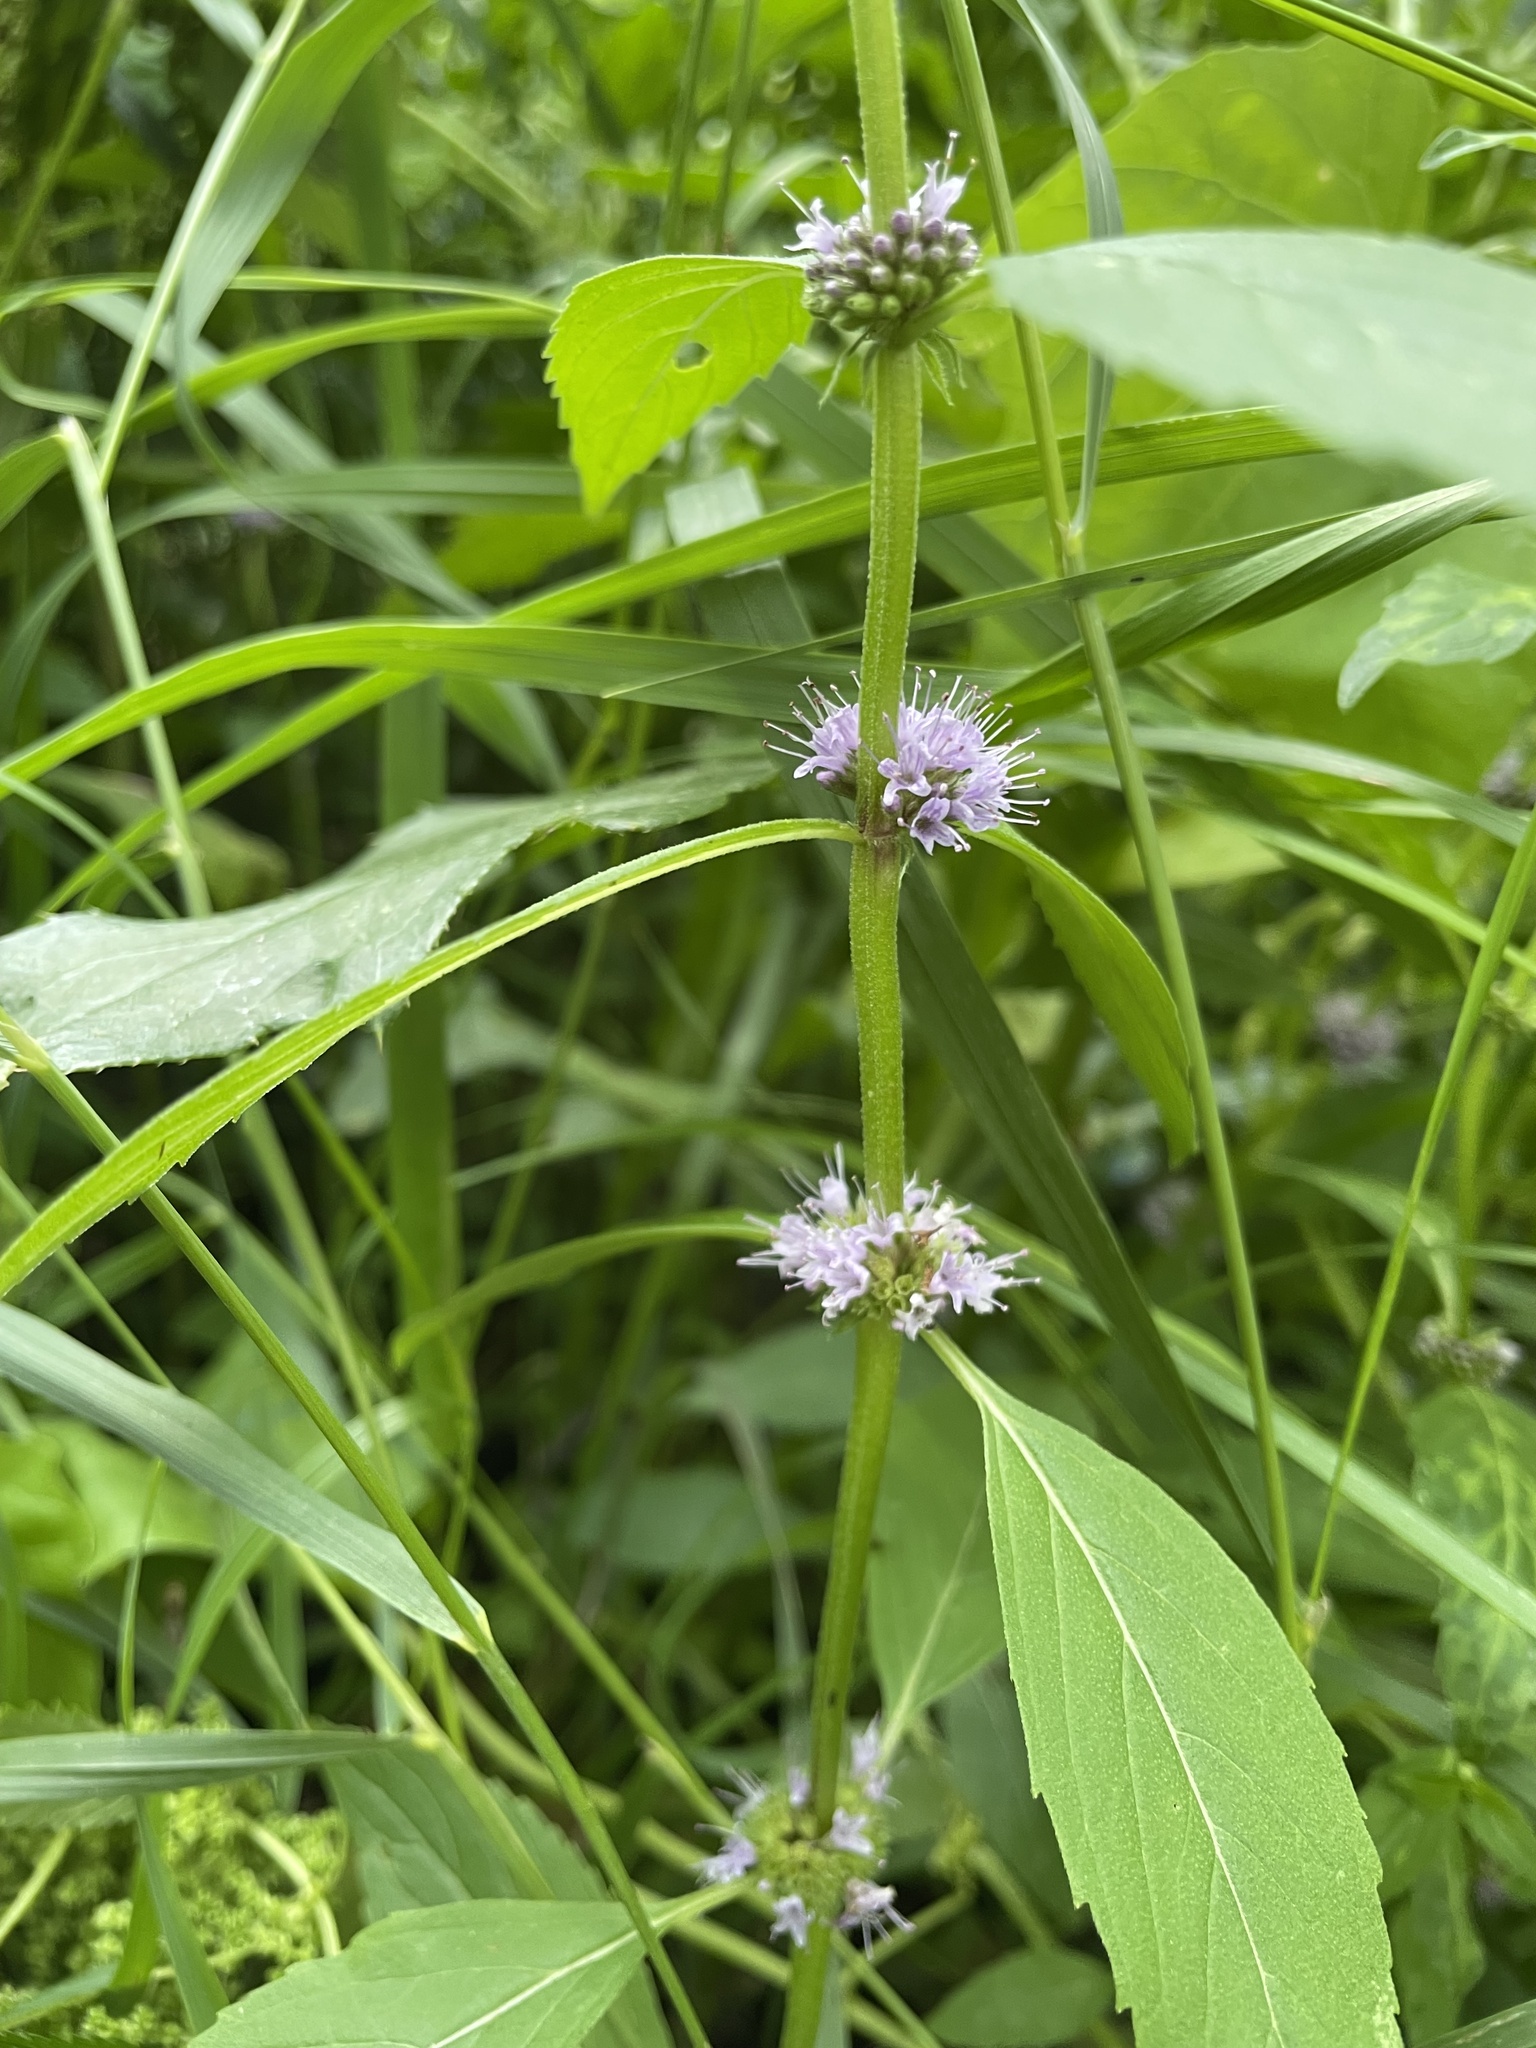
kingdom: Plantae
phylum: Tracheophyta
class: Magnoliopsida
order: Lamiales
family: Lamiaceae
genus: Mentha
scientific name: Mentha canadensis
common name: American corn mint
